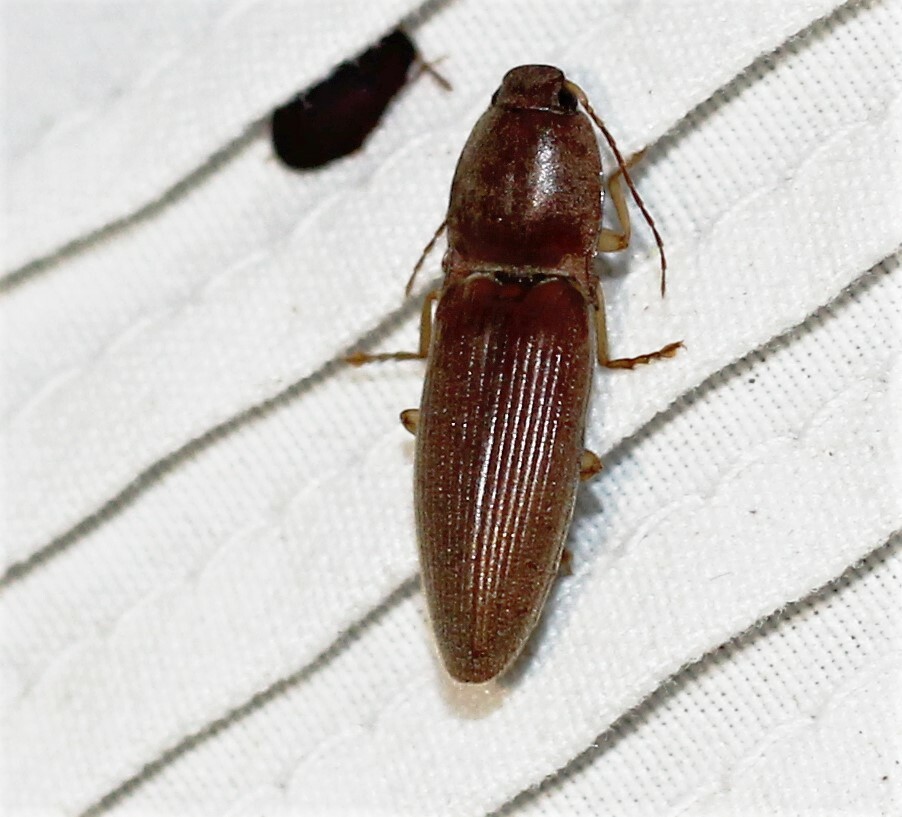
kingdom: Animalia
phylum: Arthropoda
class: Insecta
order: Coleoptera
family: Elateridae
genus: Monocrepidius
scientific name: Monocrepidius lividus
